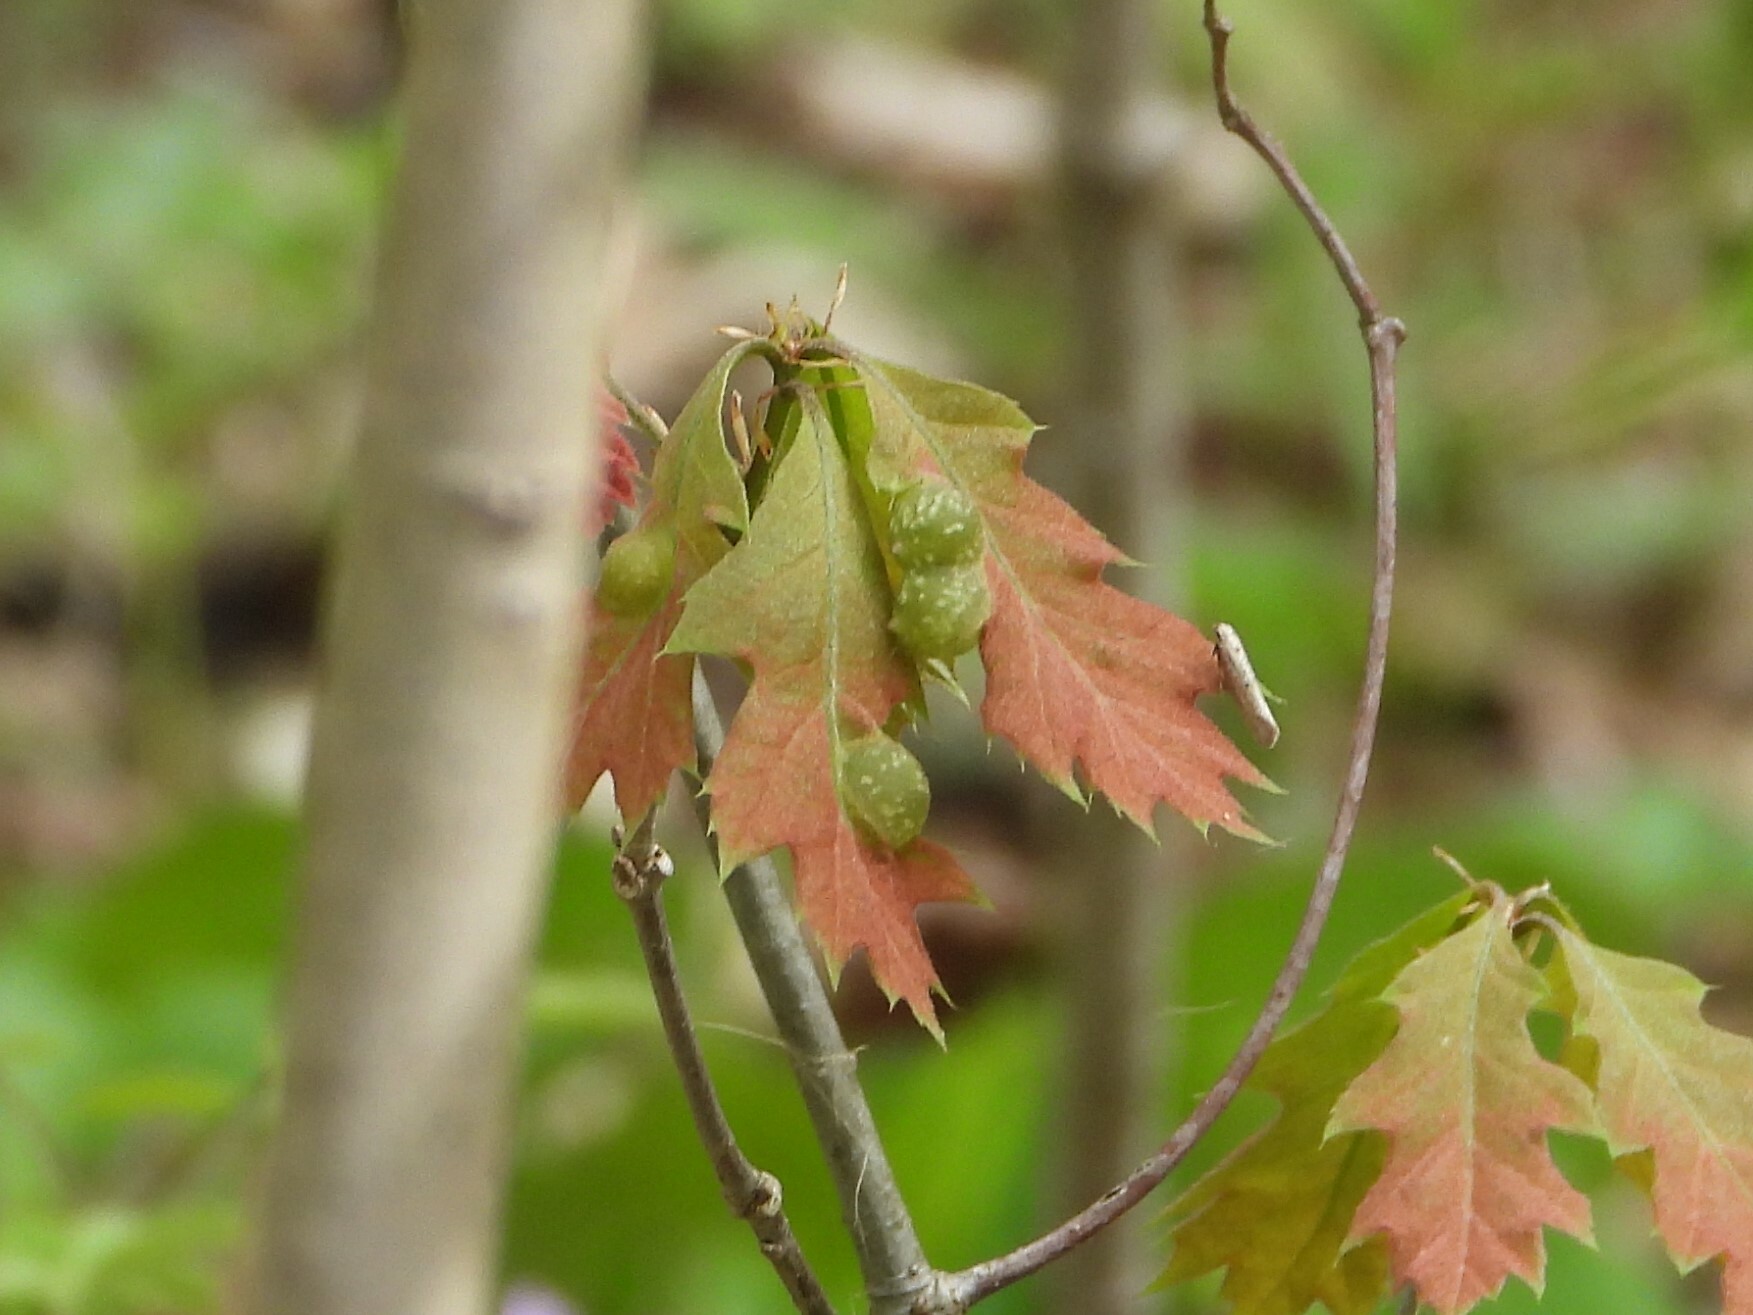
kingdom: Animalia
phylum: Arthropoda
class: Insecta
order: Hymenoptera
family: Cynipidae
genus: Dryocosmus
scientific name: Dryocosmus quercuspalustris
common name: Succulent oak gall wasp
